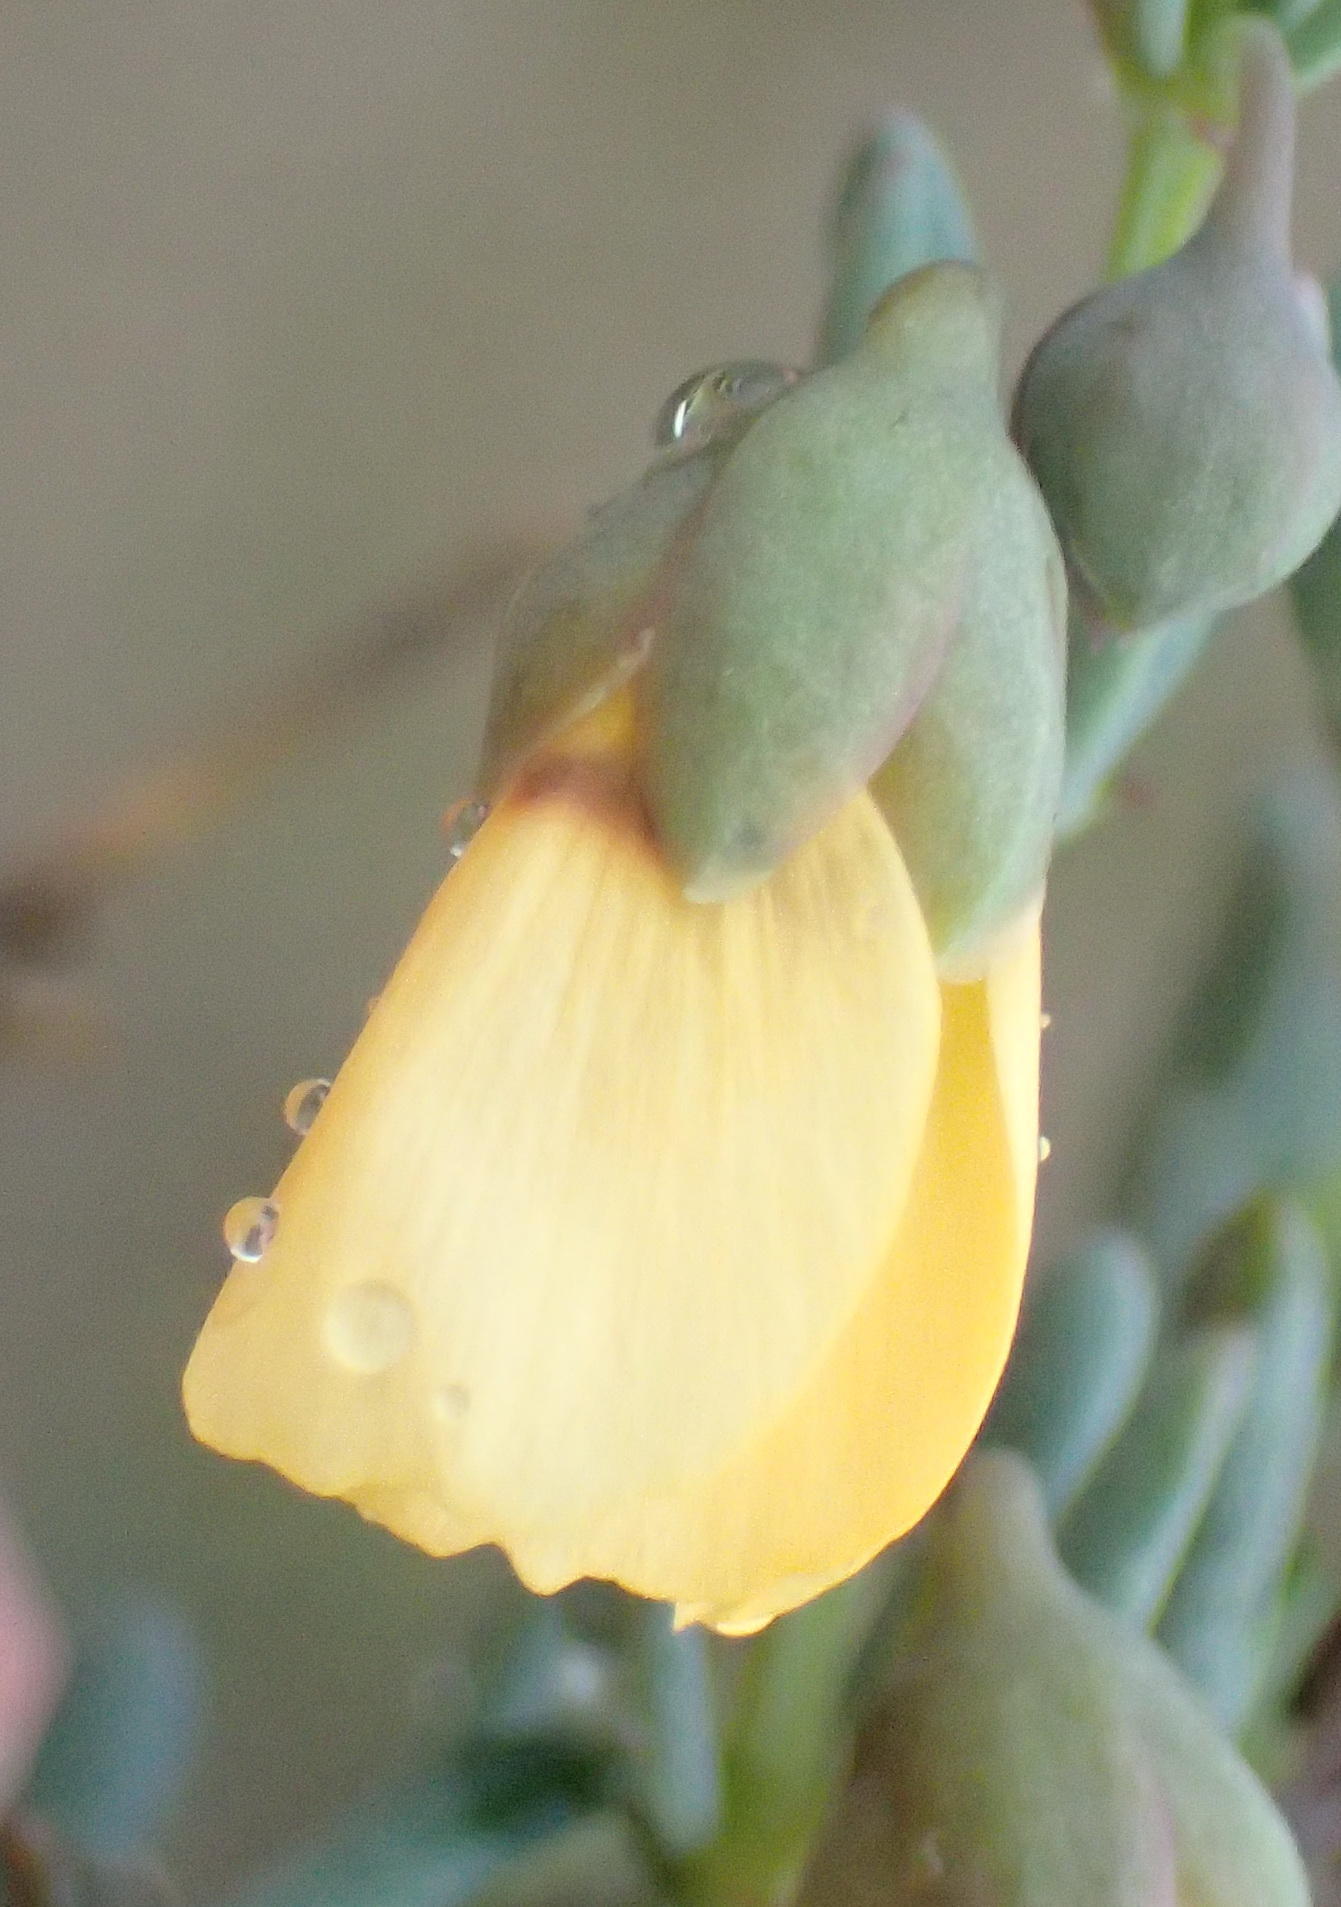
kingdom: Plantae
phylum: Tracheophyta
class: Magnoliopsida
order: Zygophyllales
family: Zygophyllaceae
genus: Roepera
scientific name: Roepera pygmaea
